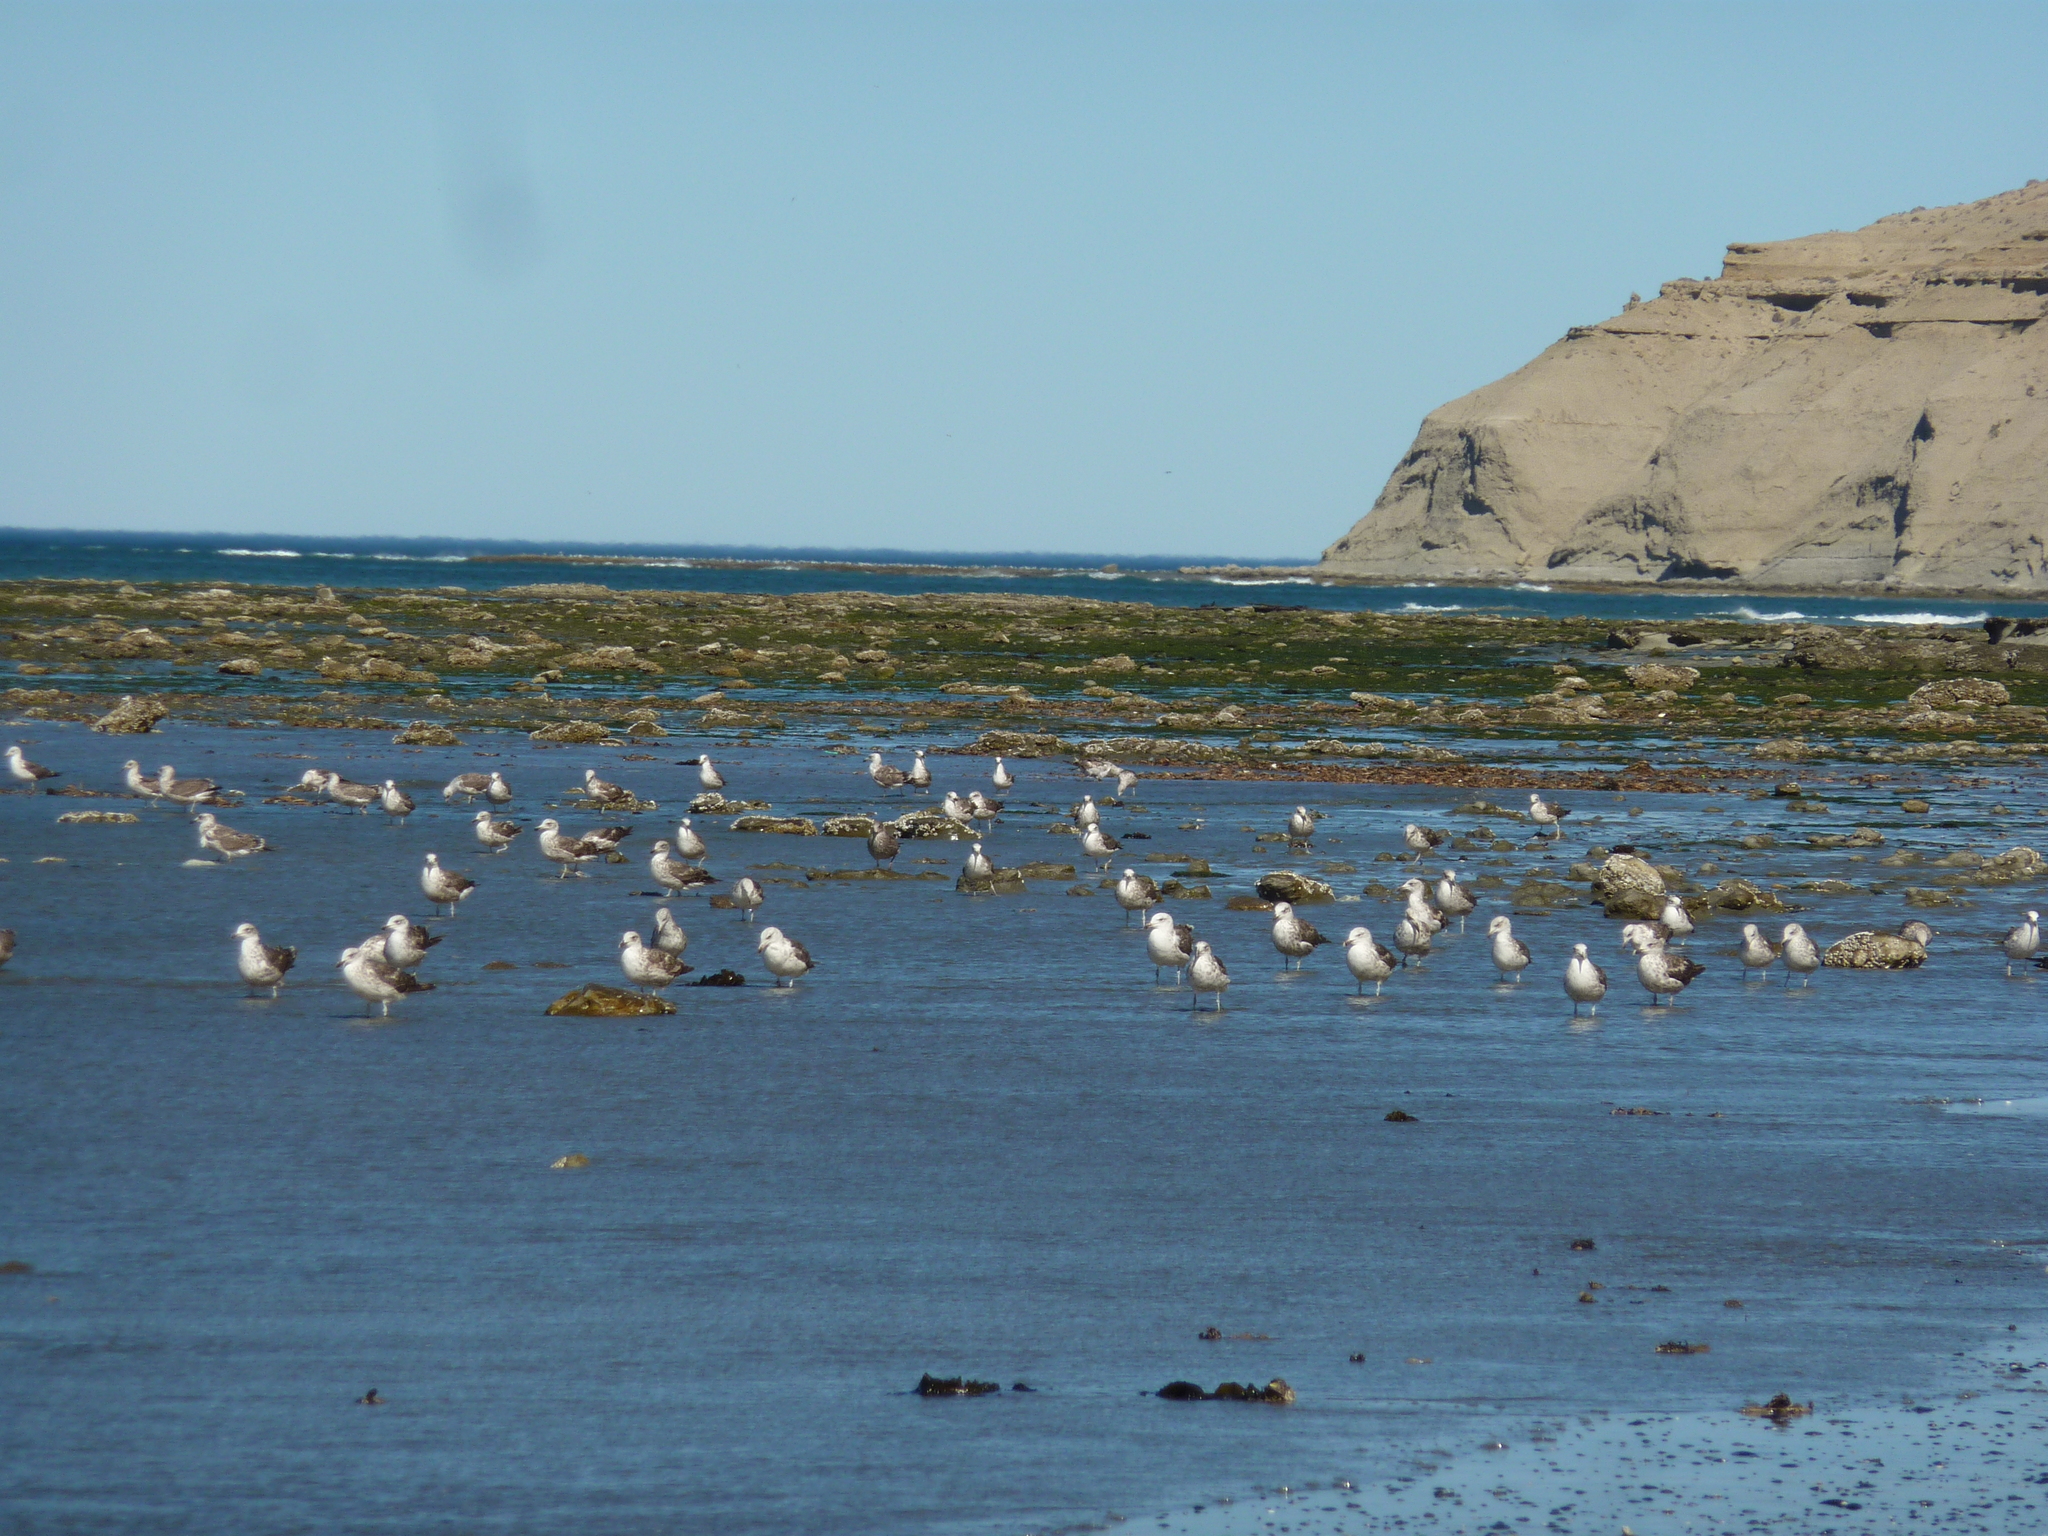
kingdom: Animalia
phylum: Chordata
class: Aves
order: Charadriiformes
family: Laridae
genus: Larus
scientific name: Larus dominicanus
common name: Kelp gull
